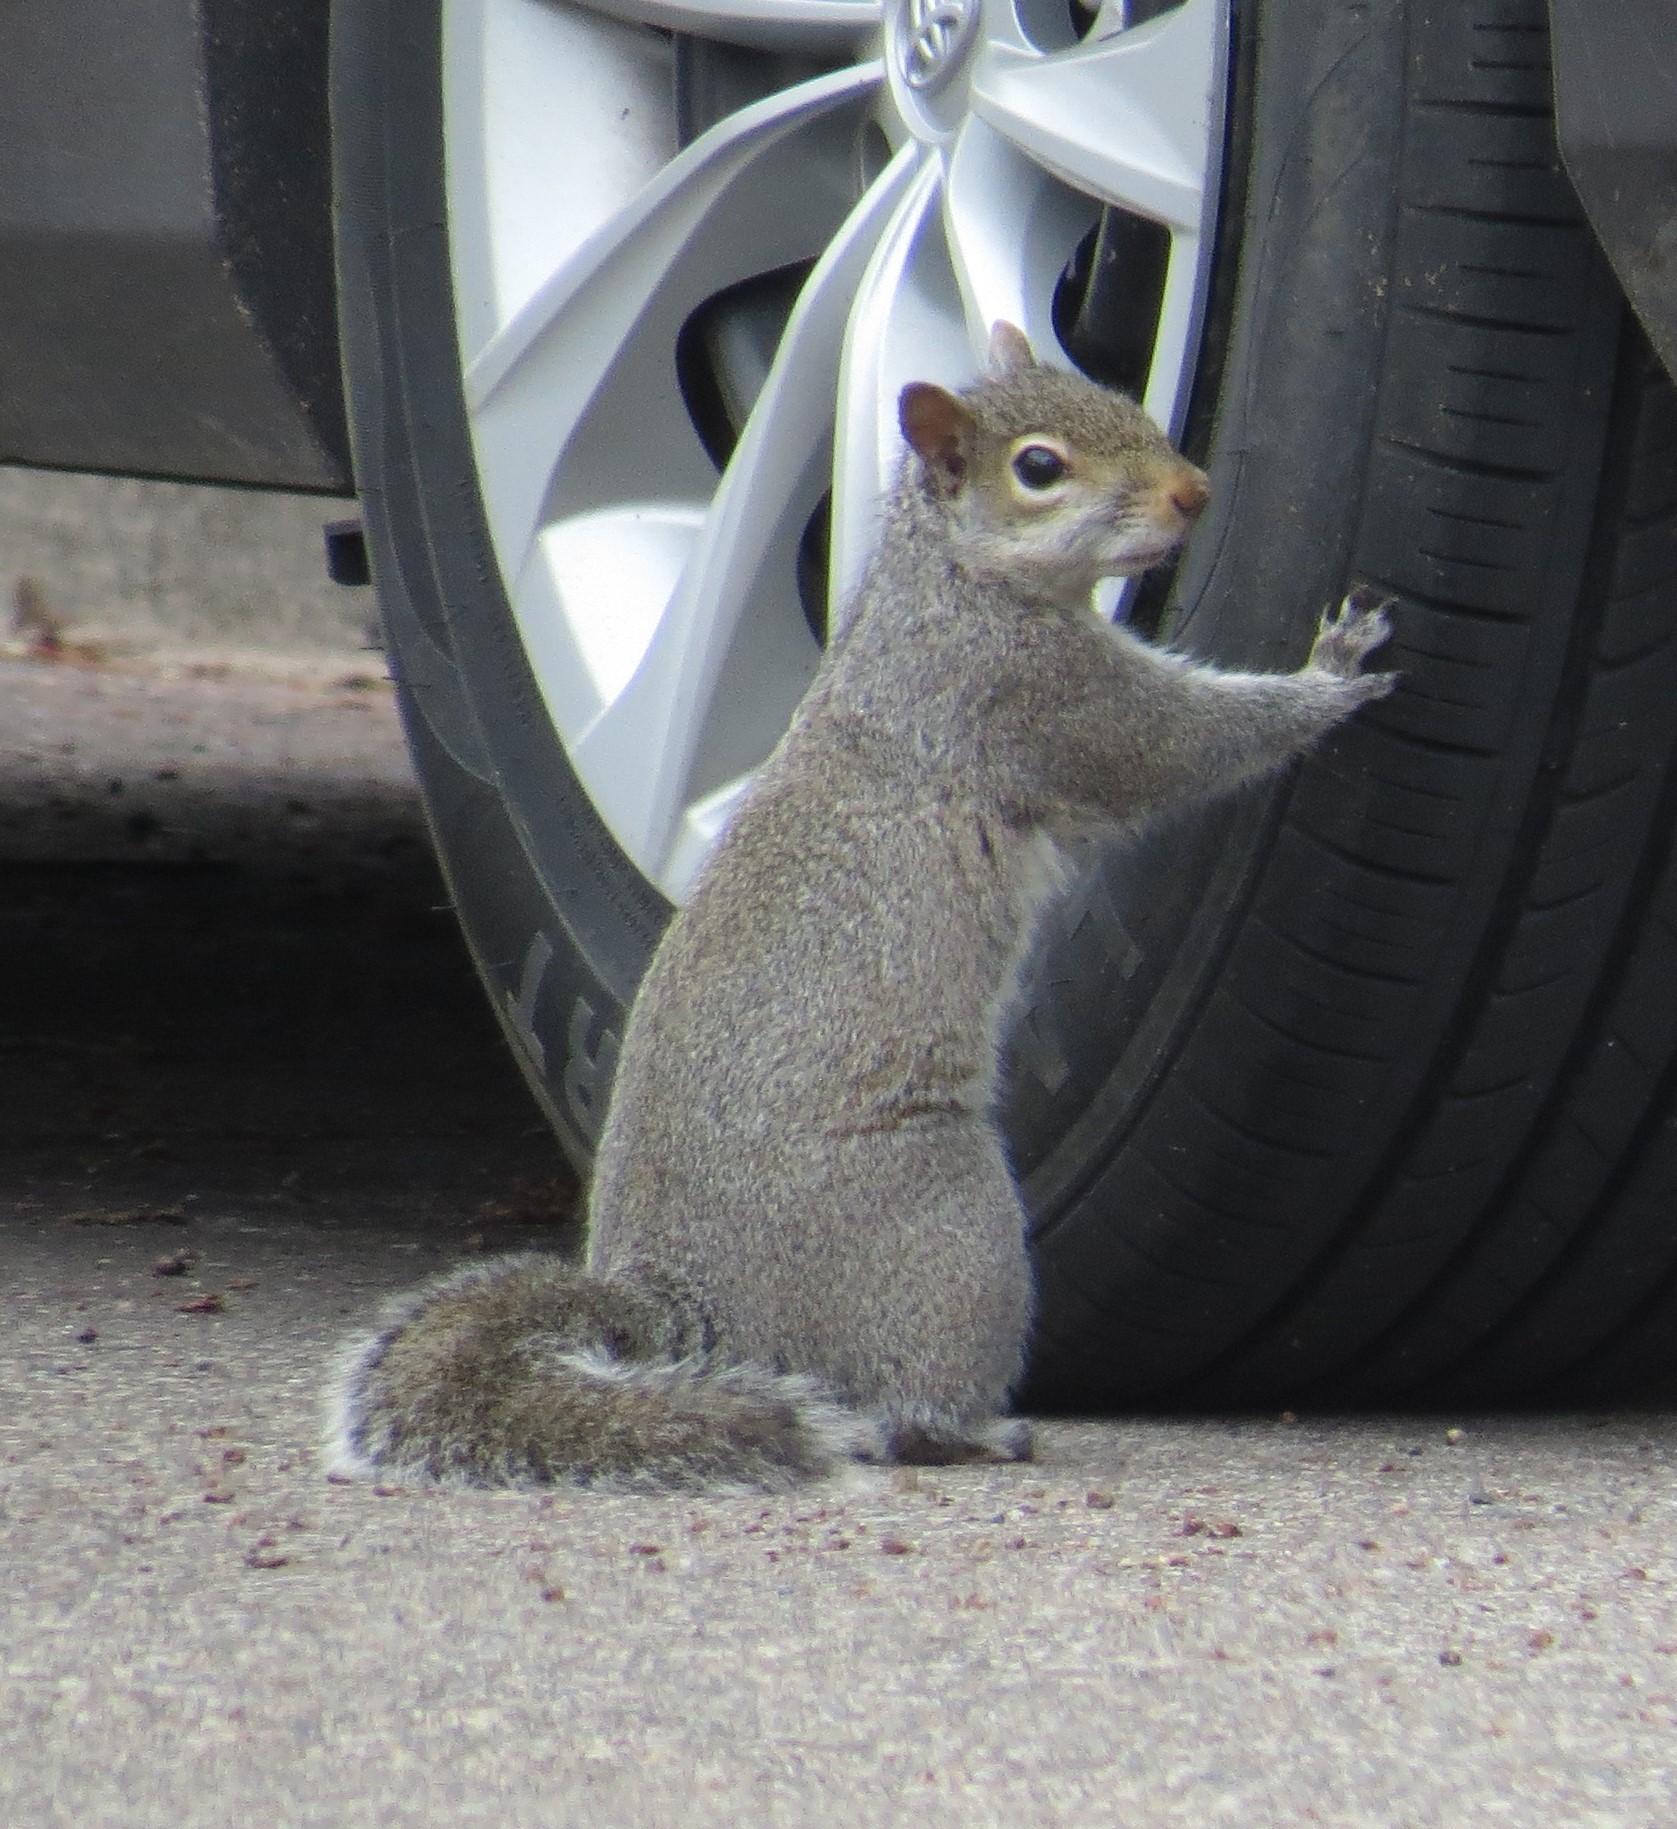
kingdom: Animalia
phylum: Chordata
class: Mammalia
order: Rodentia
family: Sciuridae
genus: Sciurus
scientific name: Sciurus carolinensis
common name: Eastern gray squirrel
